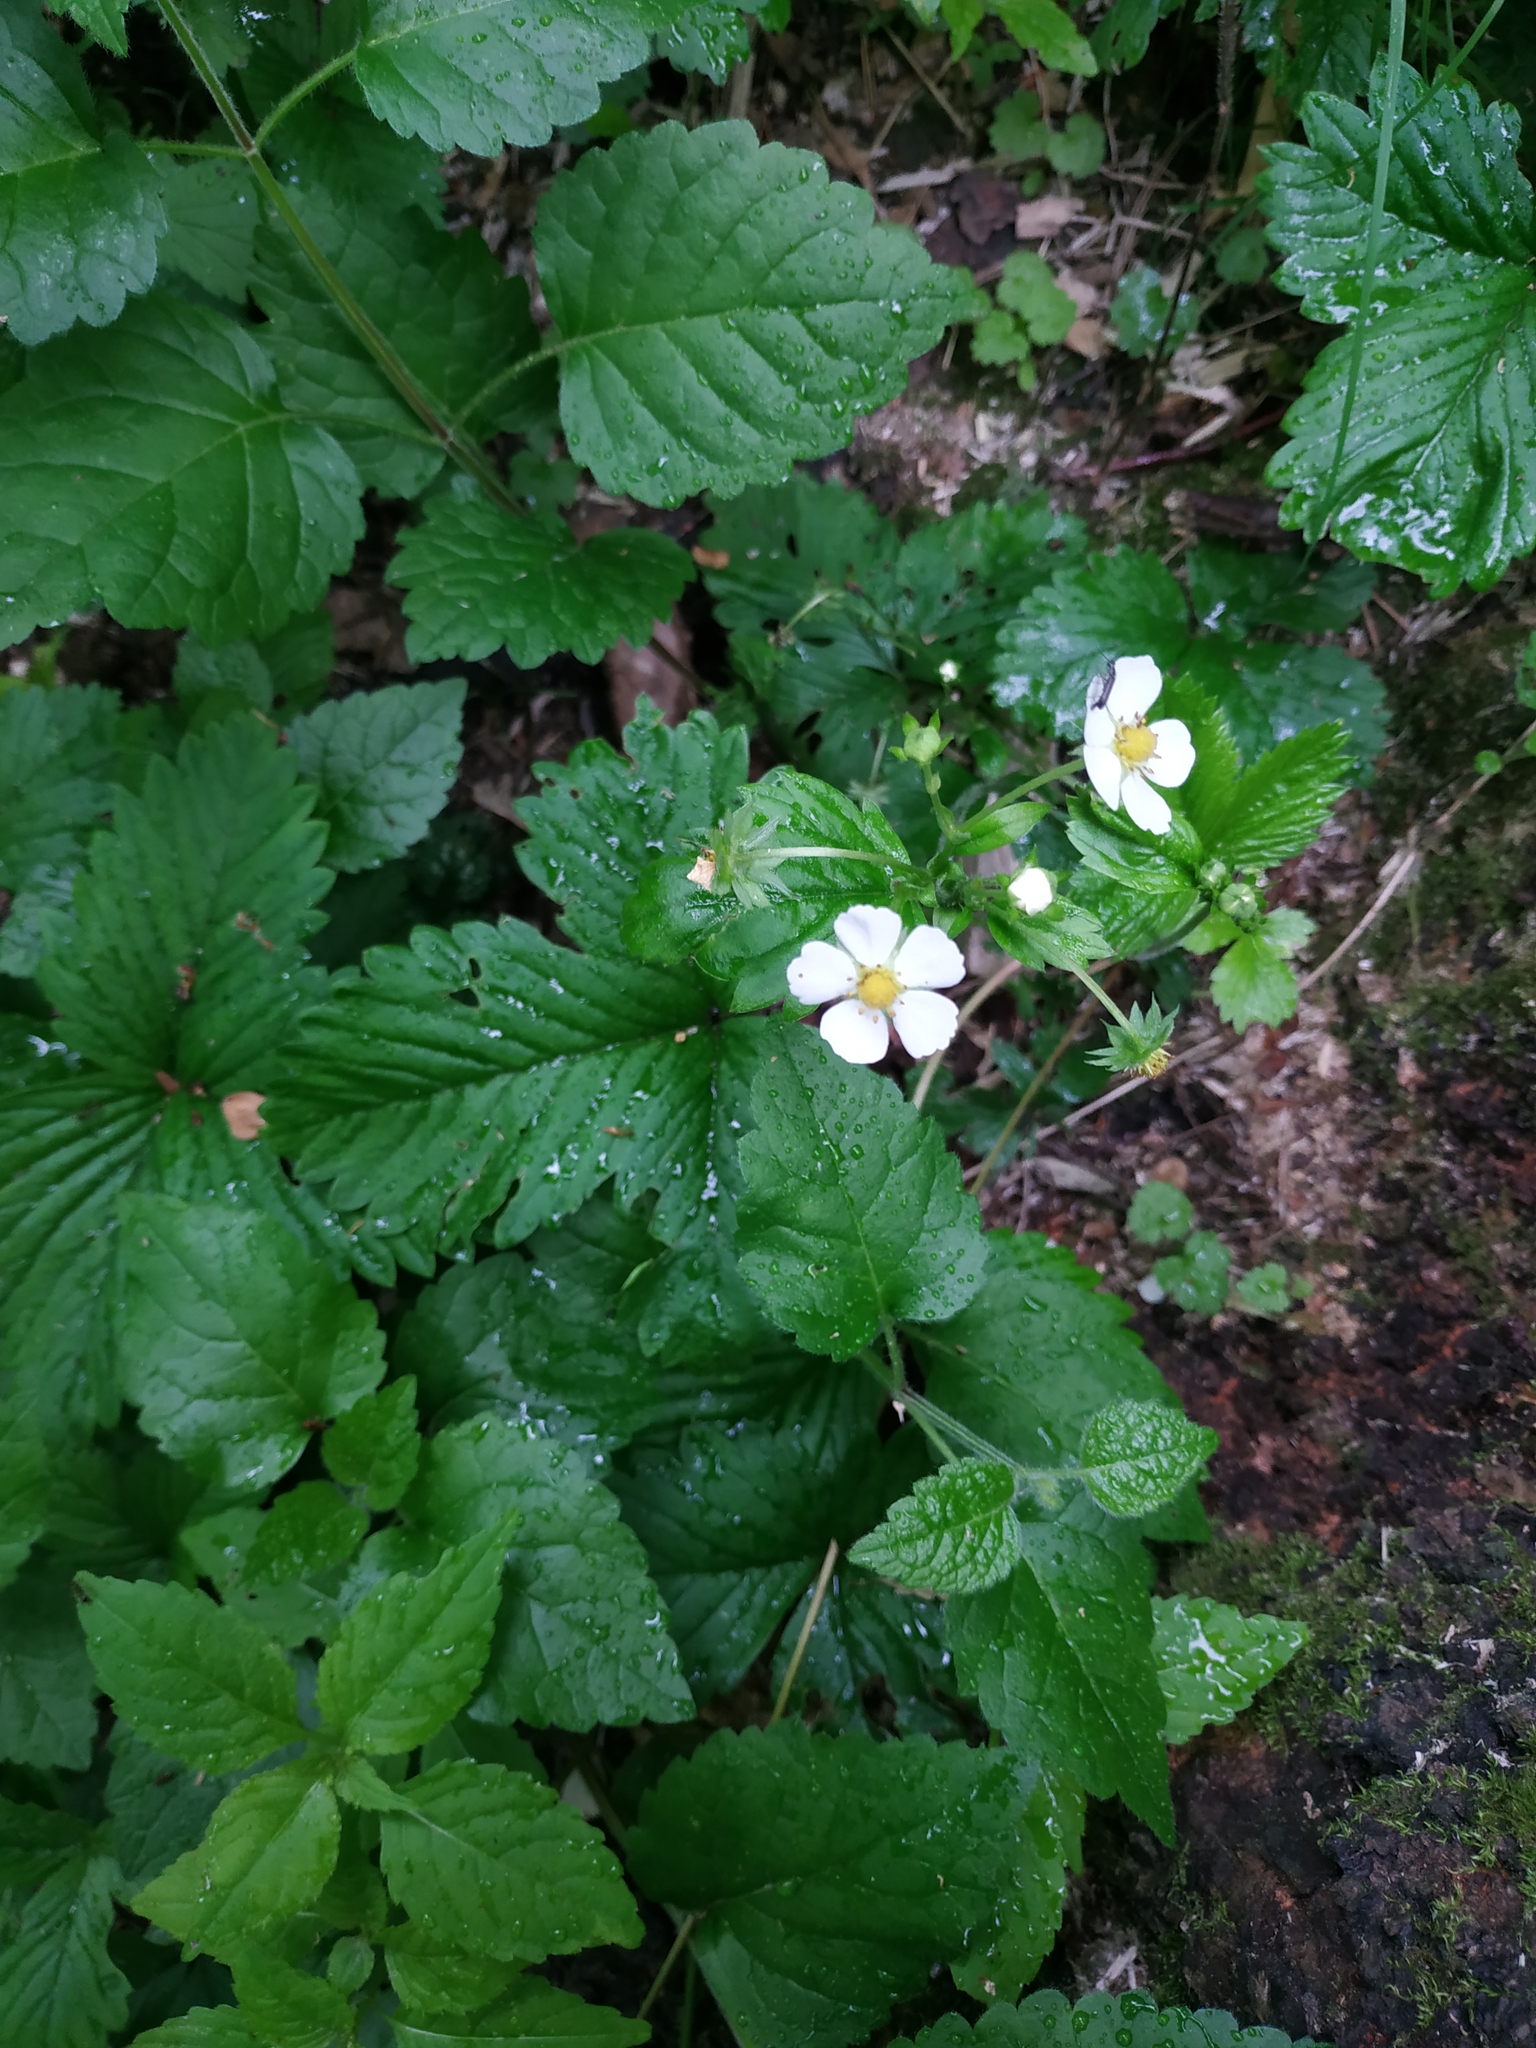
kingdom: Plantae
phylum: Tracheophyta
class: Magnoliopsida
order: Rosales
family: Rosaceae
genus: Fragaria
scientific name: Fragaria vesca
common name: Wild strawberry
